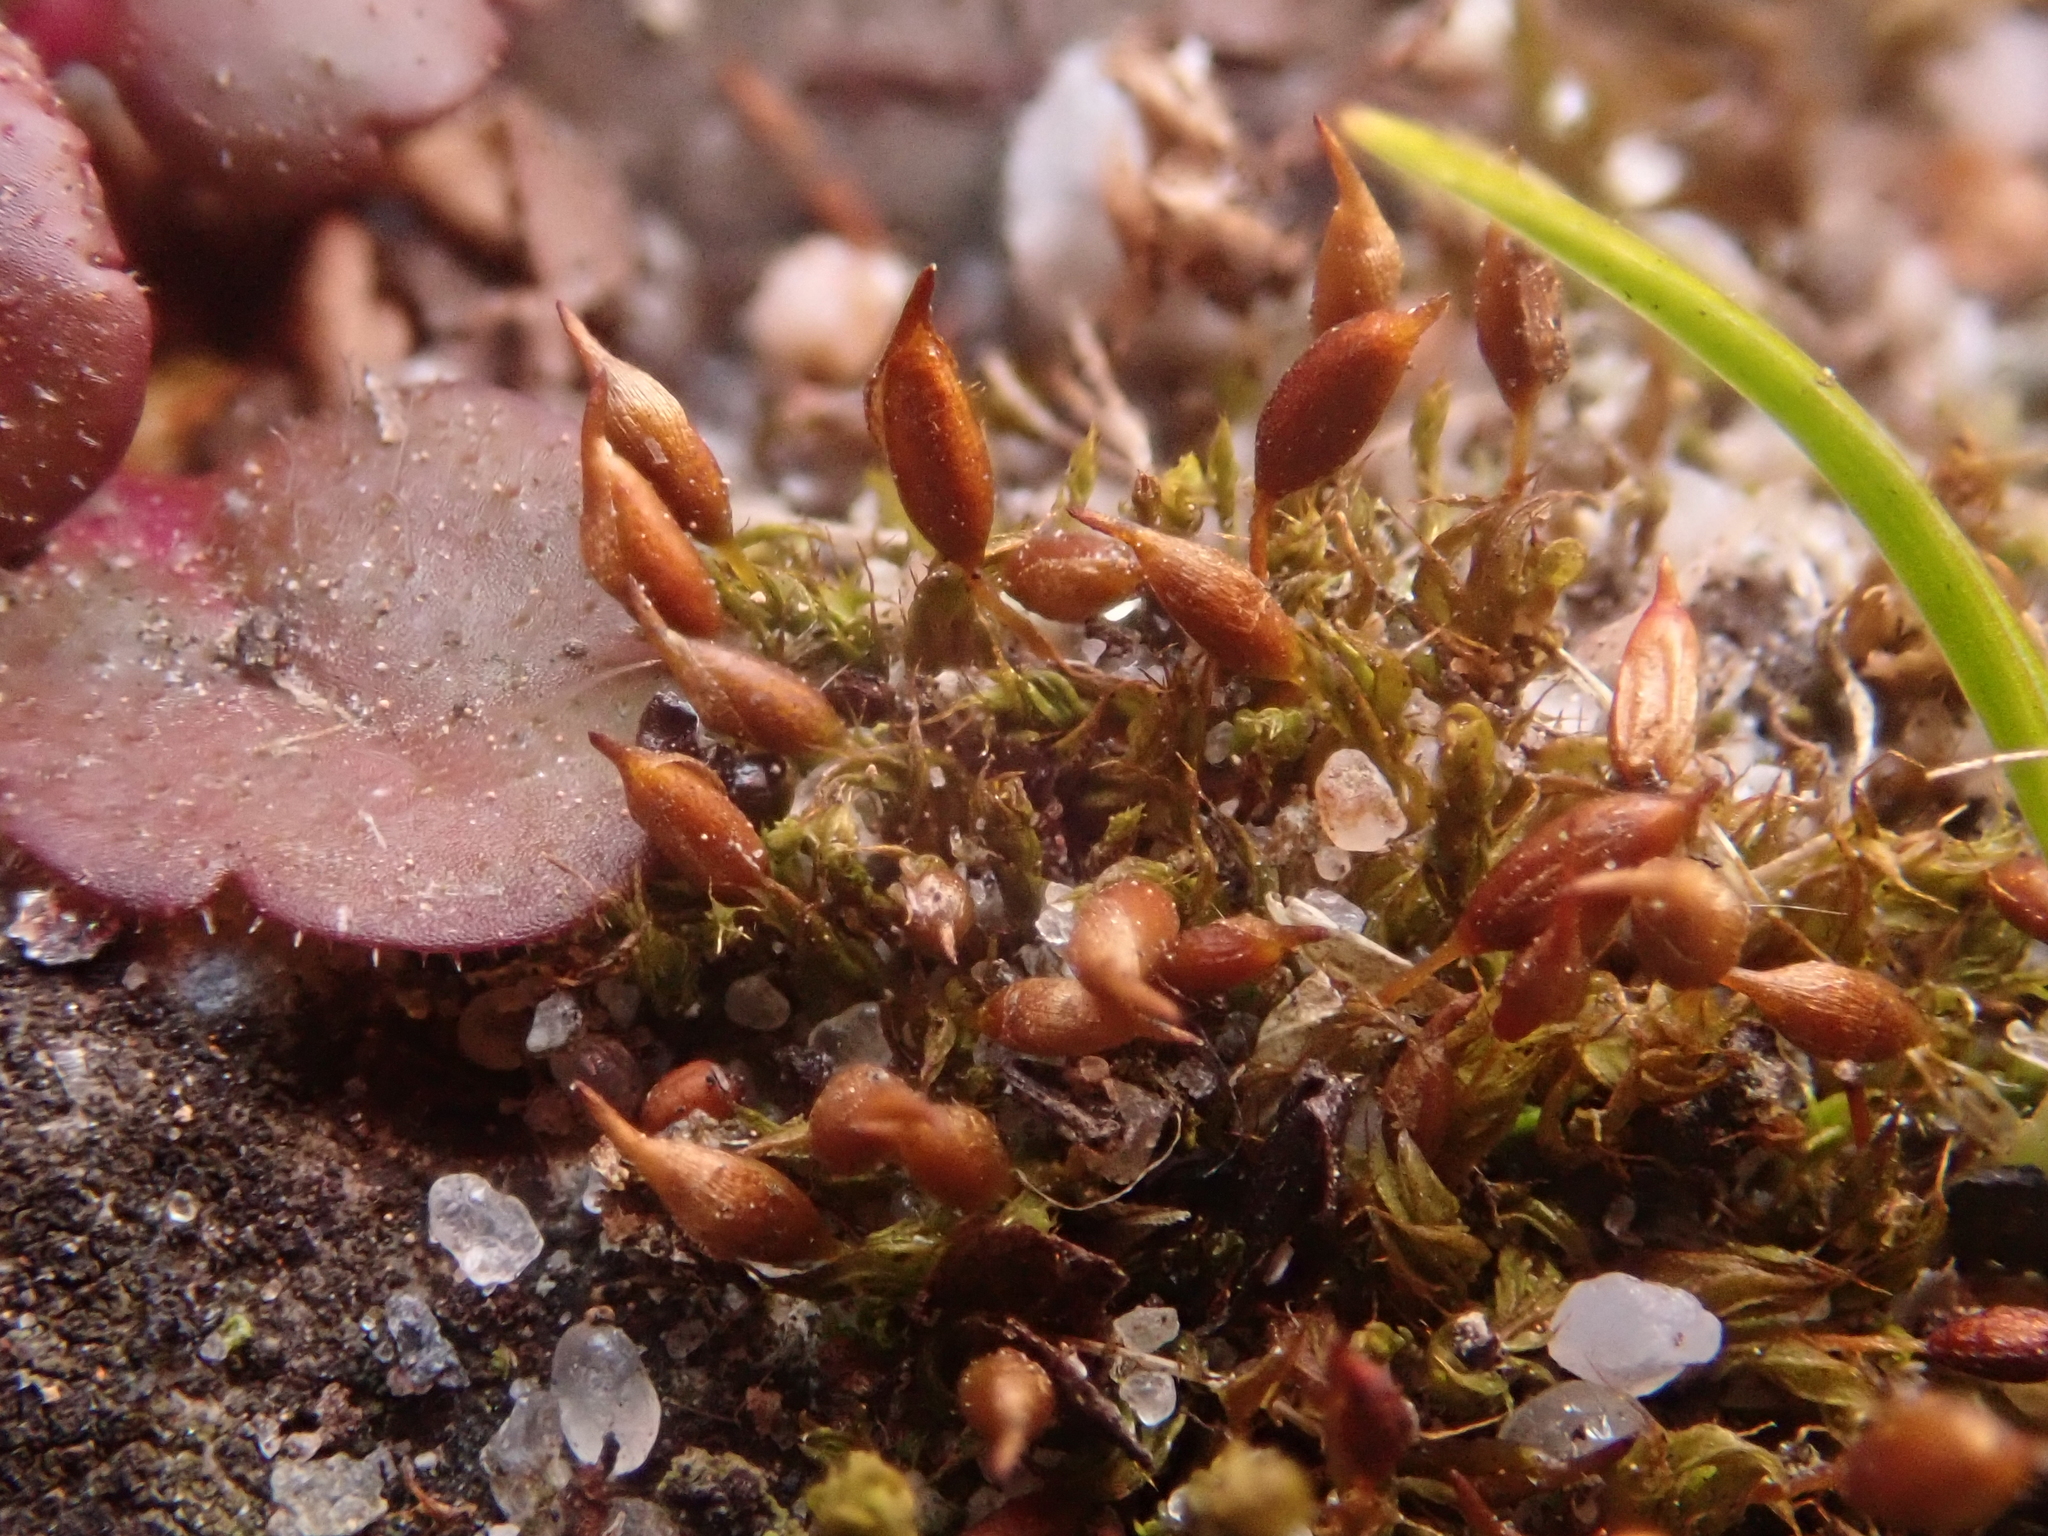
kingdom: Plantae
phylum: Bryophyta
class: Bryopsida
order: Pottiales
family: Pottiaceae
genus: Tortula
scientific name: Tortula protobryoides
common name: Tall pottia
